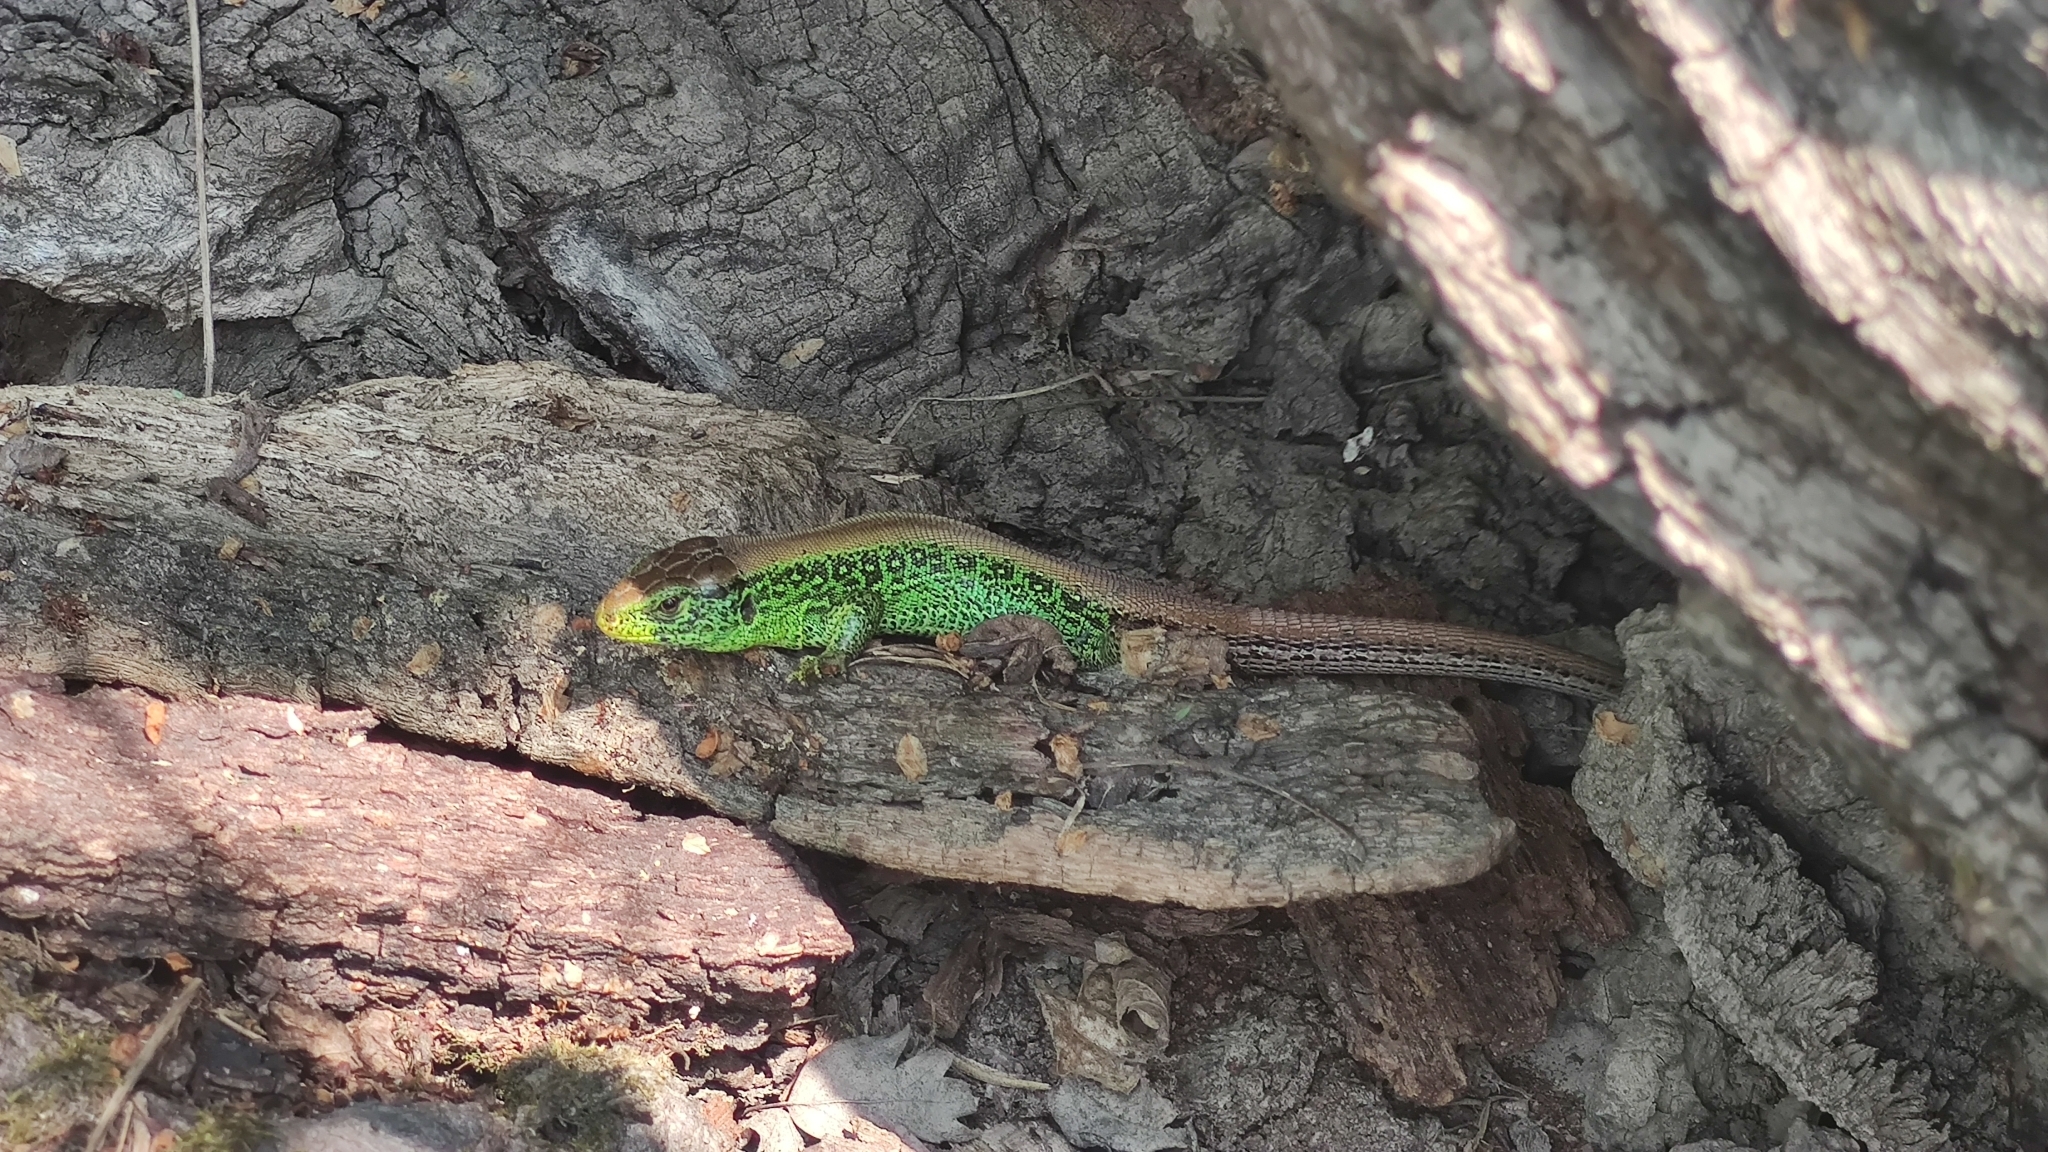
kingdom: Animalia
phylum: Chordata
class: Squamata
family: Lacertidae
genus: Lacerta
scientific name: Lacerta agilis
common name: Sand lizard
